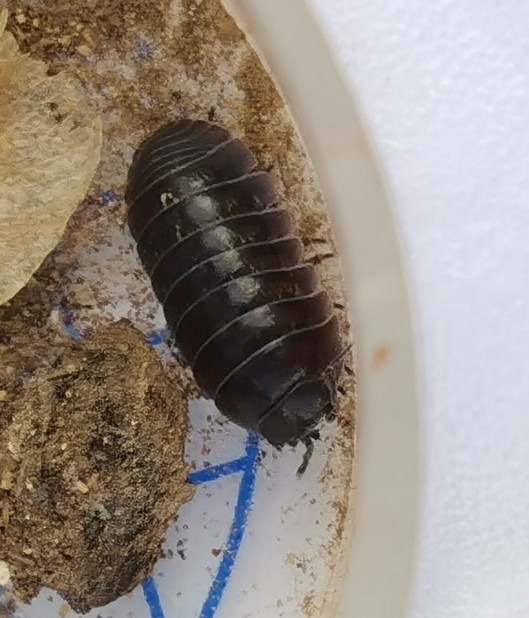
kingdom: Animalia
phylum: Arthropoda
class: Malacostraca
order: Isopoda
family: Armadillidiidae
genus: Armadillidium
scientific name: Armadillidium vulgare
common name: Common pill woodlouse
